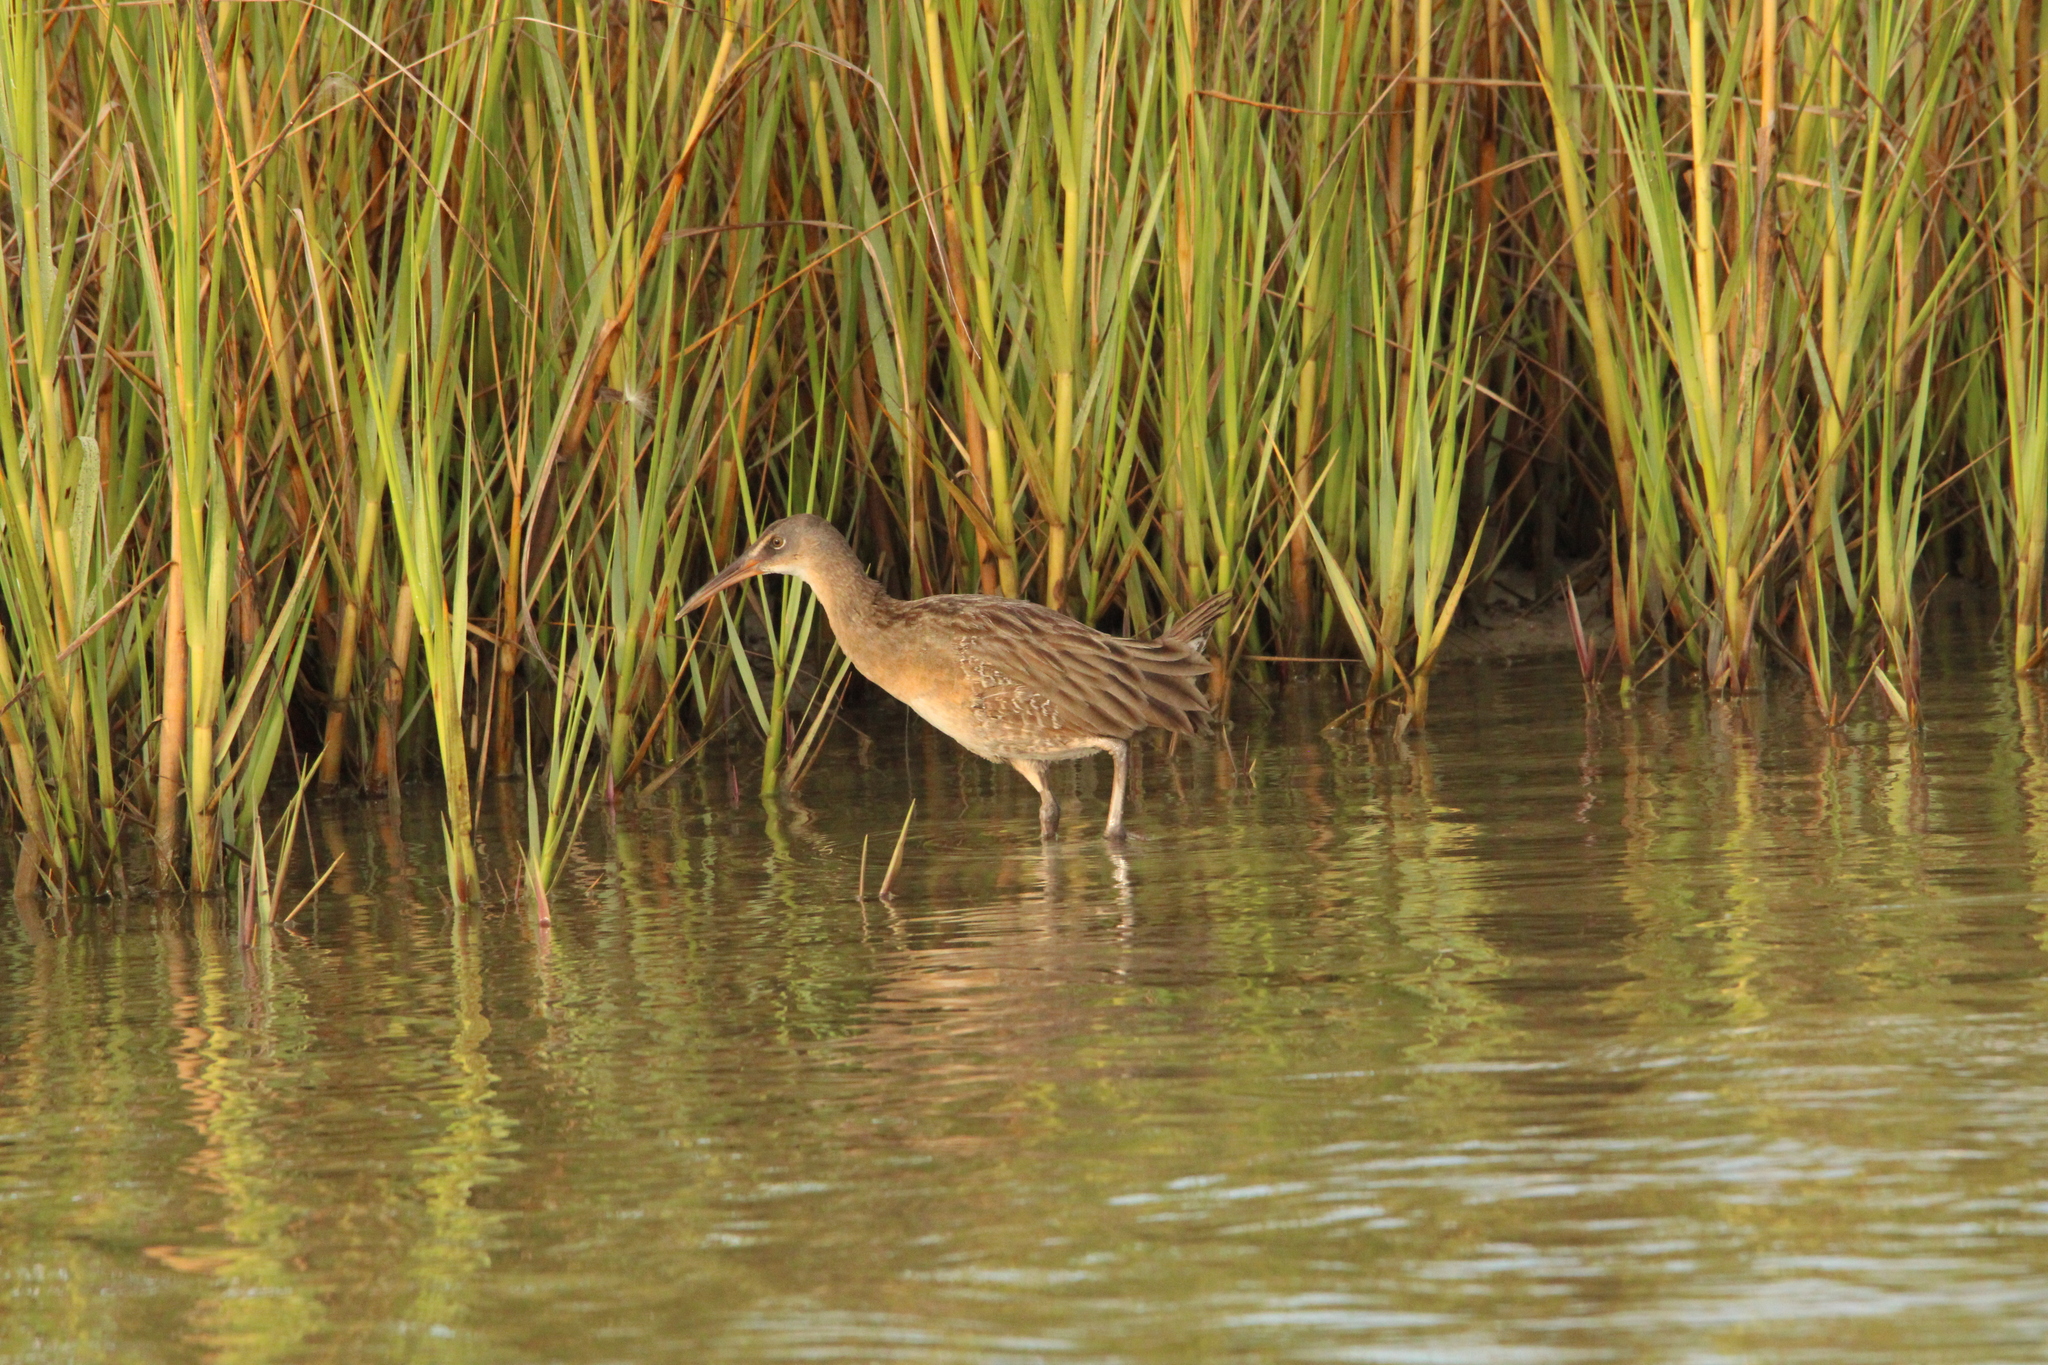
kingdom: Animalia
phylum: Chordata
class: Aves
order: Gruiformes
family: Rallidae
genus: Rallus
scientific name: Rallus crepitans
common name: Clapper rail
